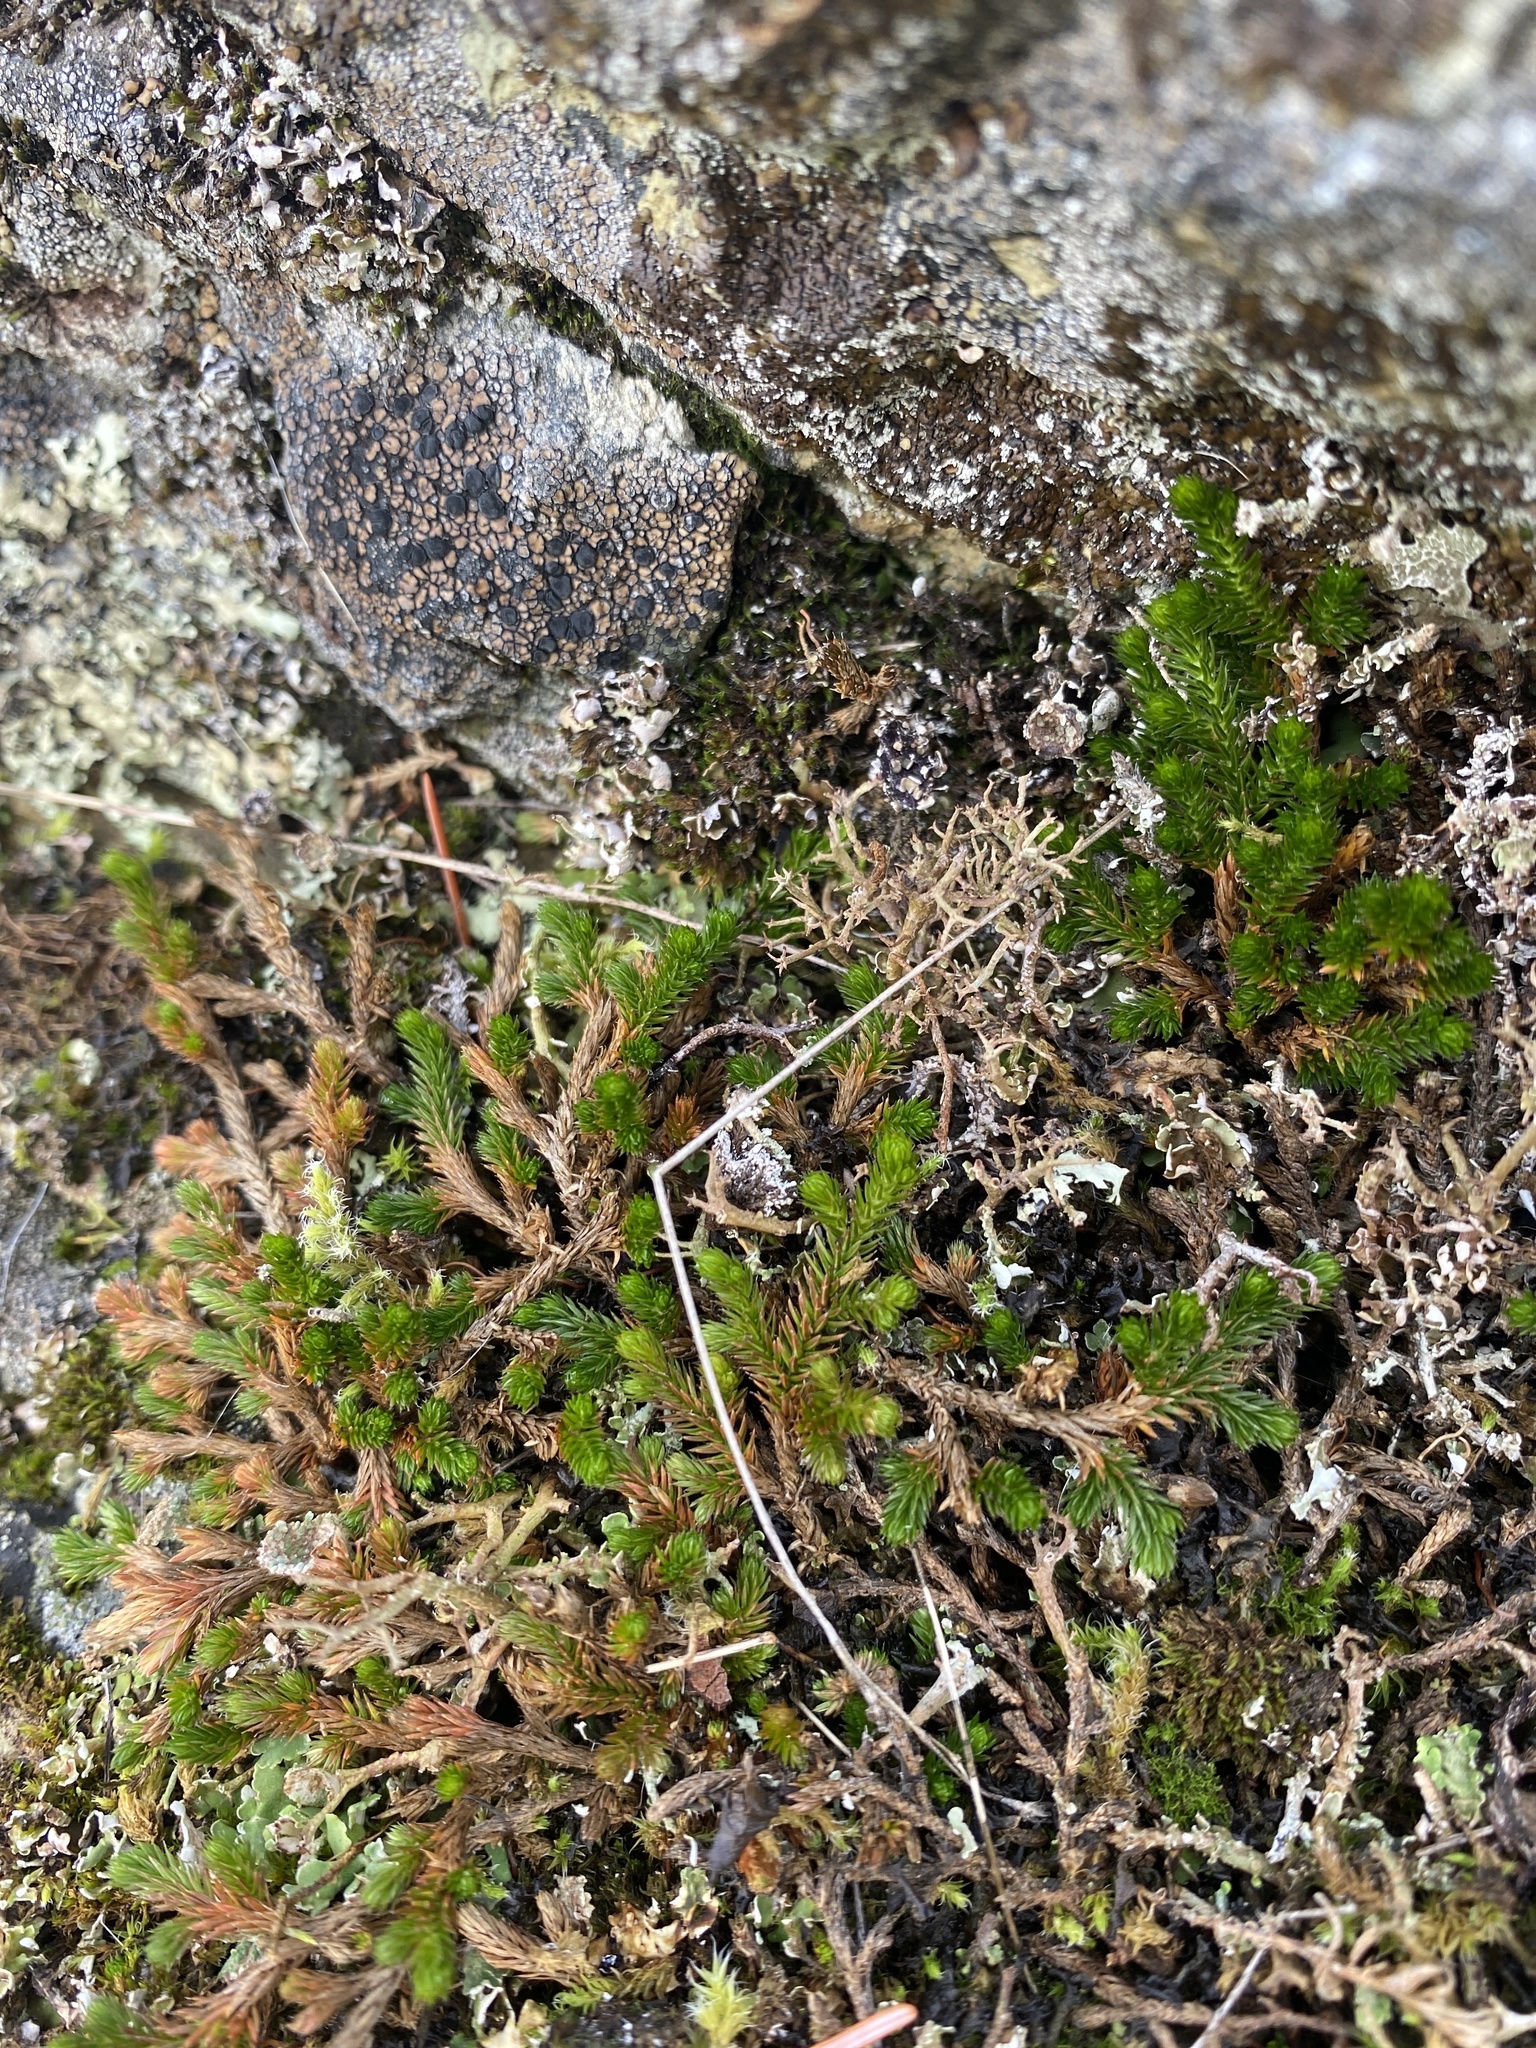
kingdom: Plantae
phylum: Tracheophyta
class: Lycopodiopsida
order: Selaginellales
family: Selaginellaceae
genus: Selaginella
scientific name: Selaginella wallacei
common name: Wallace's selaginella
